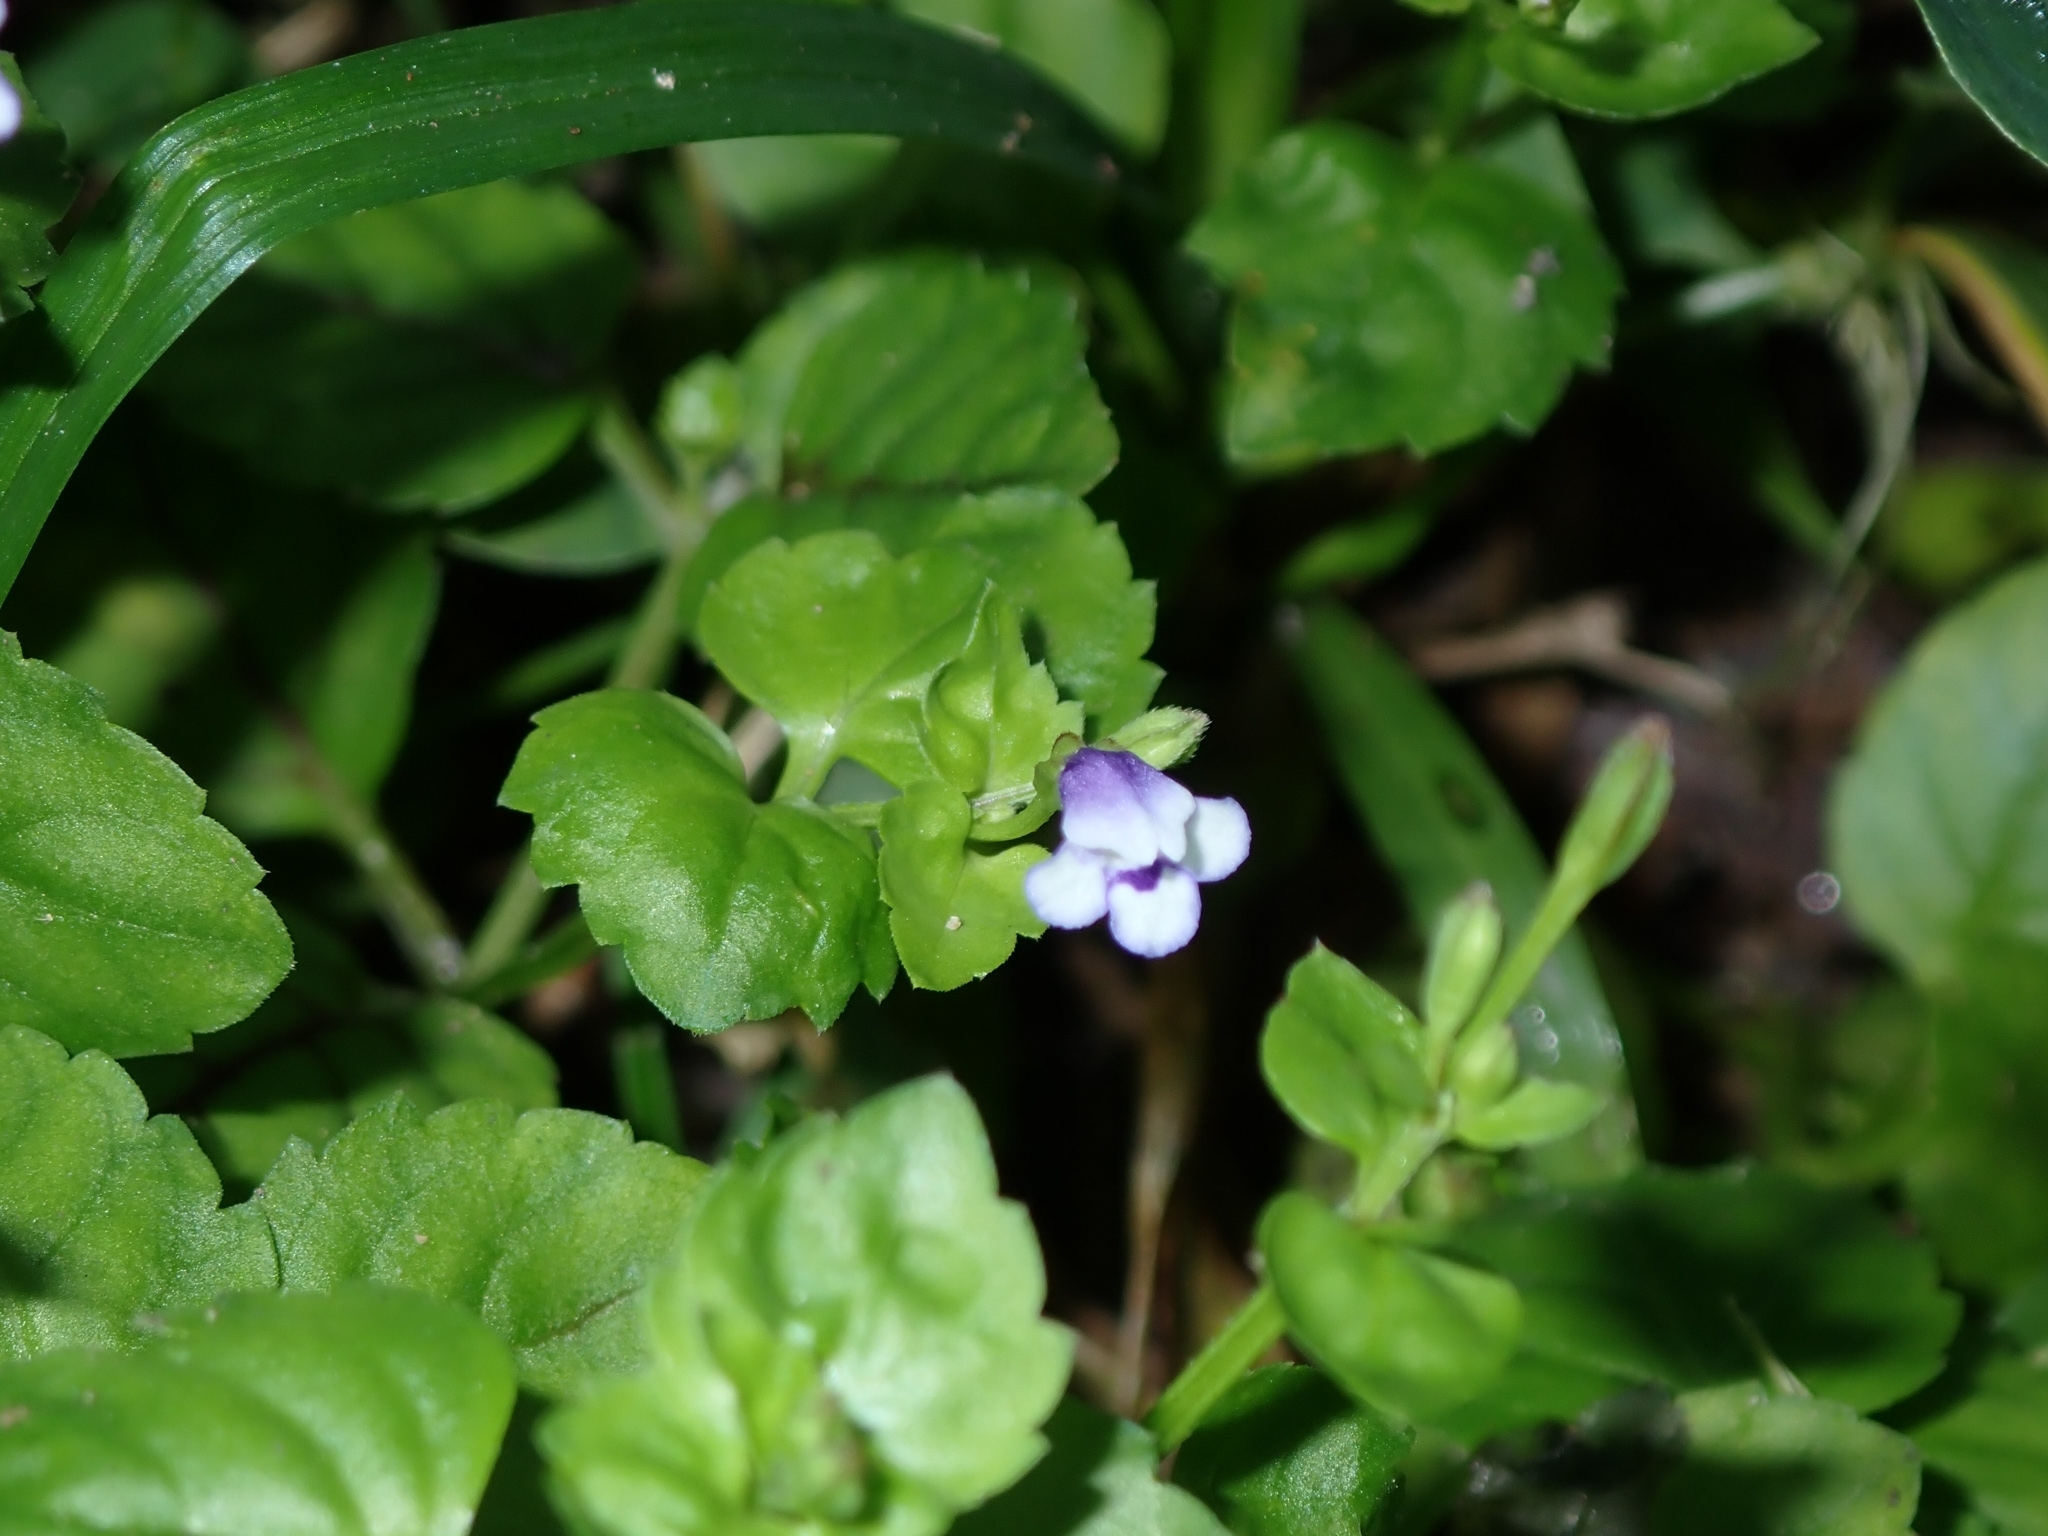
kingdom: Plantae
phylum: Tracheophyta
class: Magnoliopsida
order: Lamiales
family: Linderniaceae
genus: Torenia
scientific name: Torenia crustacea
